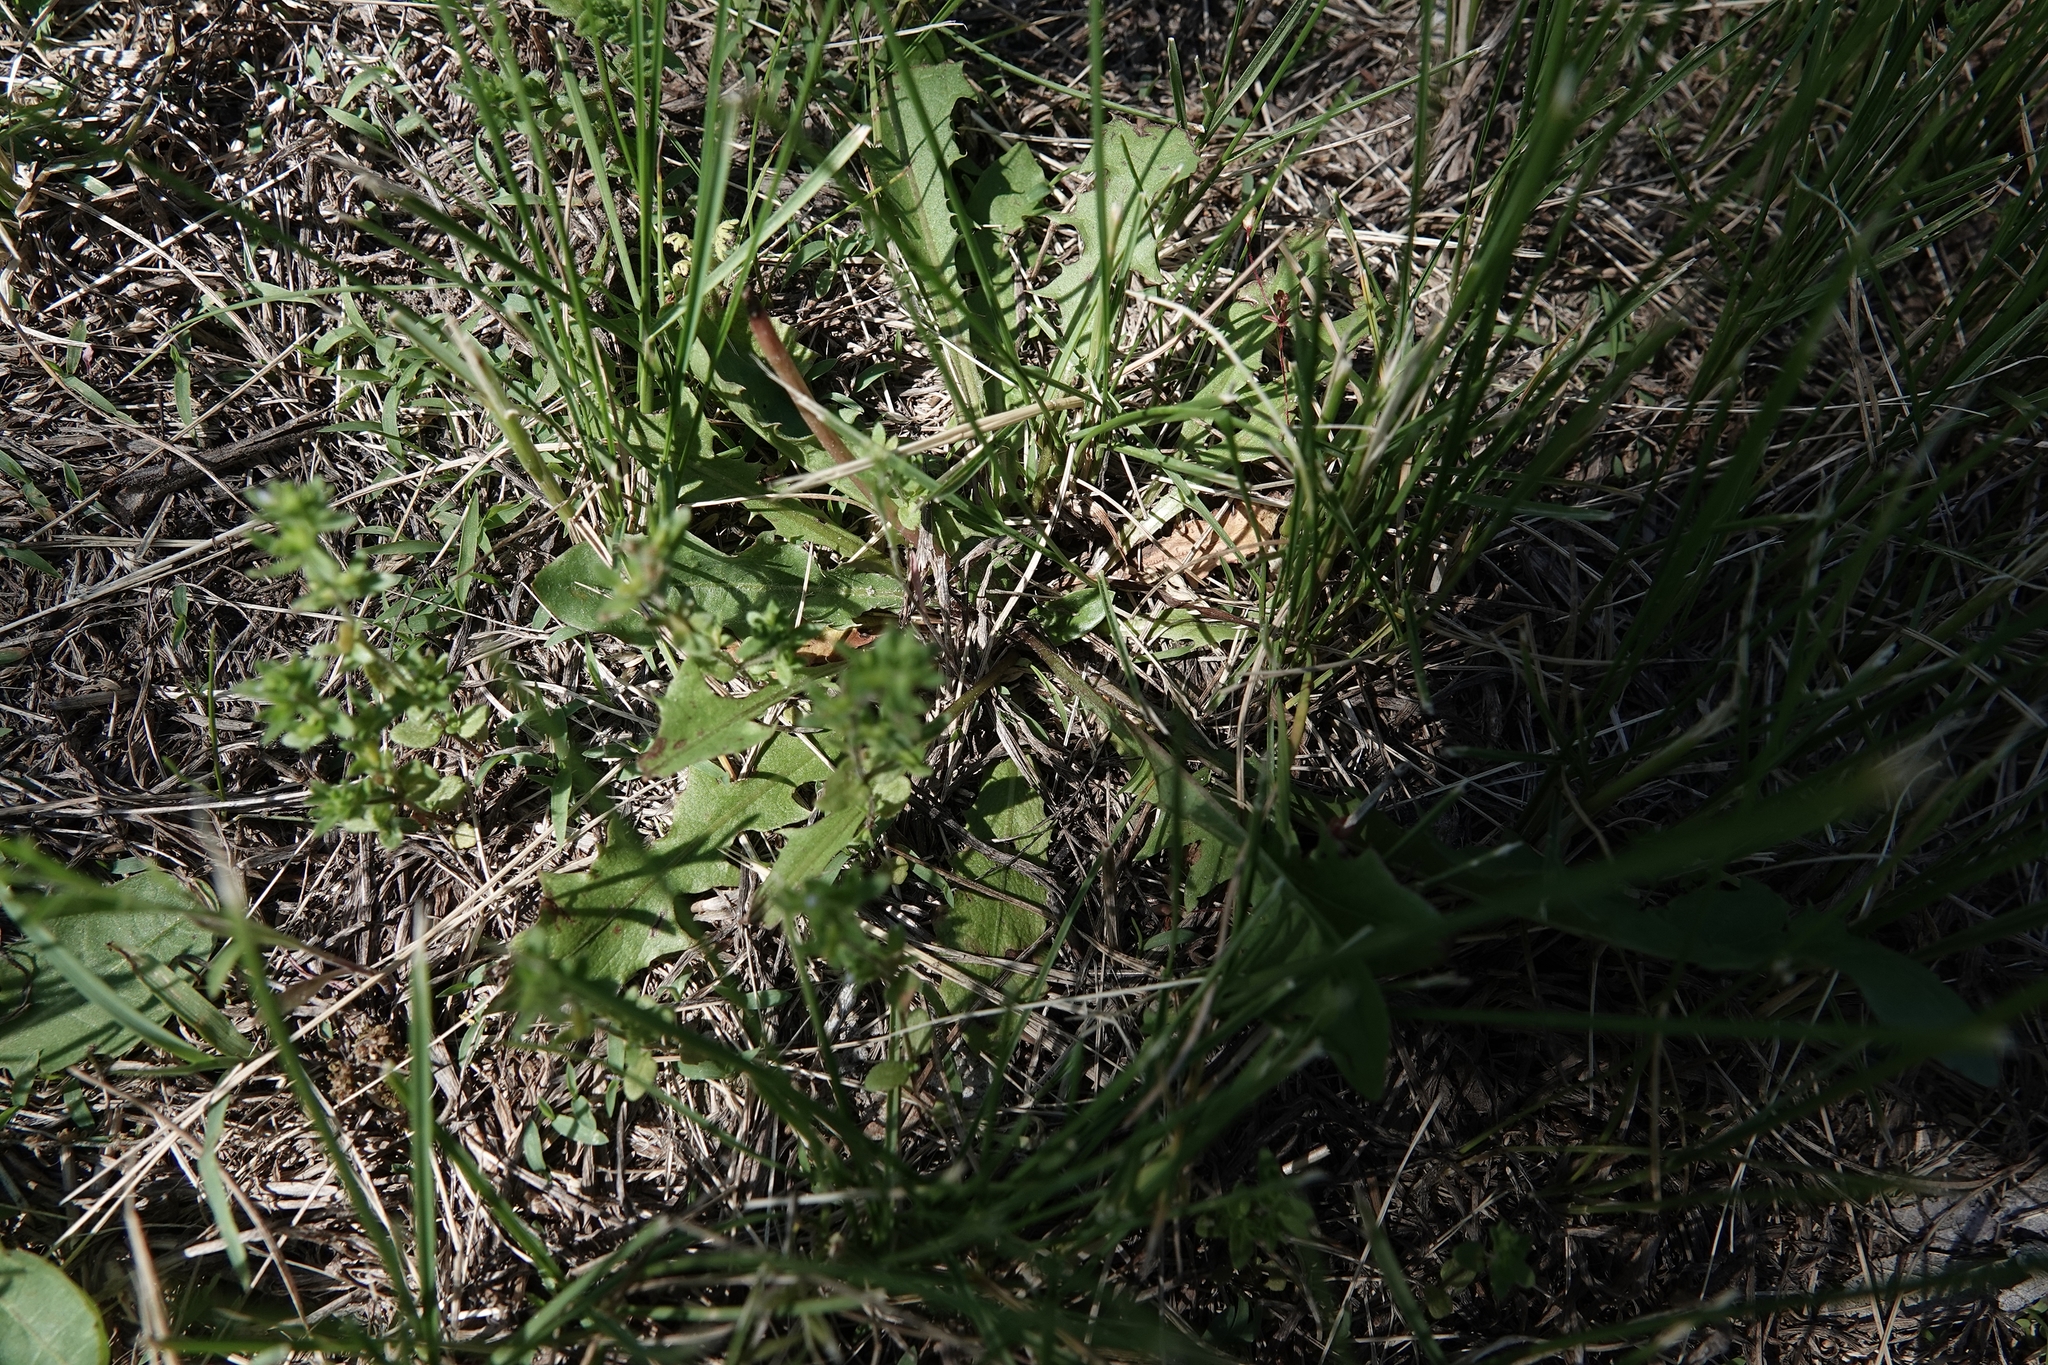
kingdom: Plantae
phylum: Tracheophyta
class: Magnoliopsida
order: Asterales
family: Asteraceae
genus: Taraxacum
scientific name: Taraxacum
